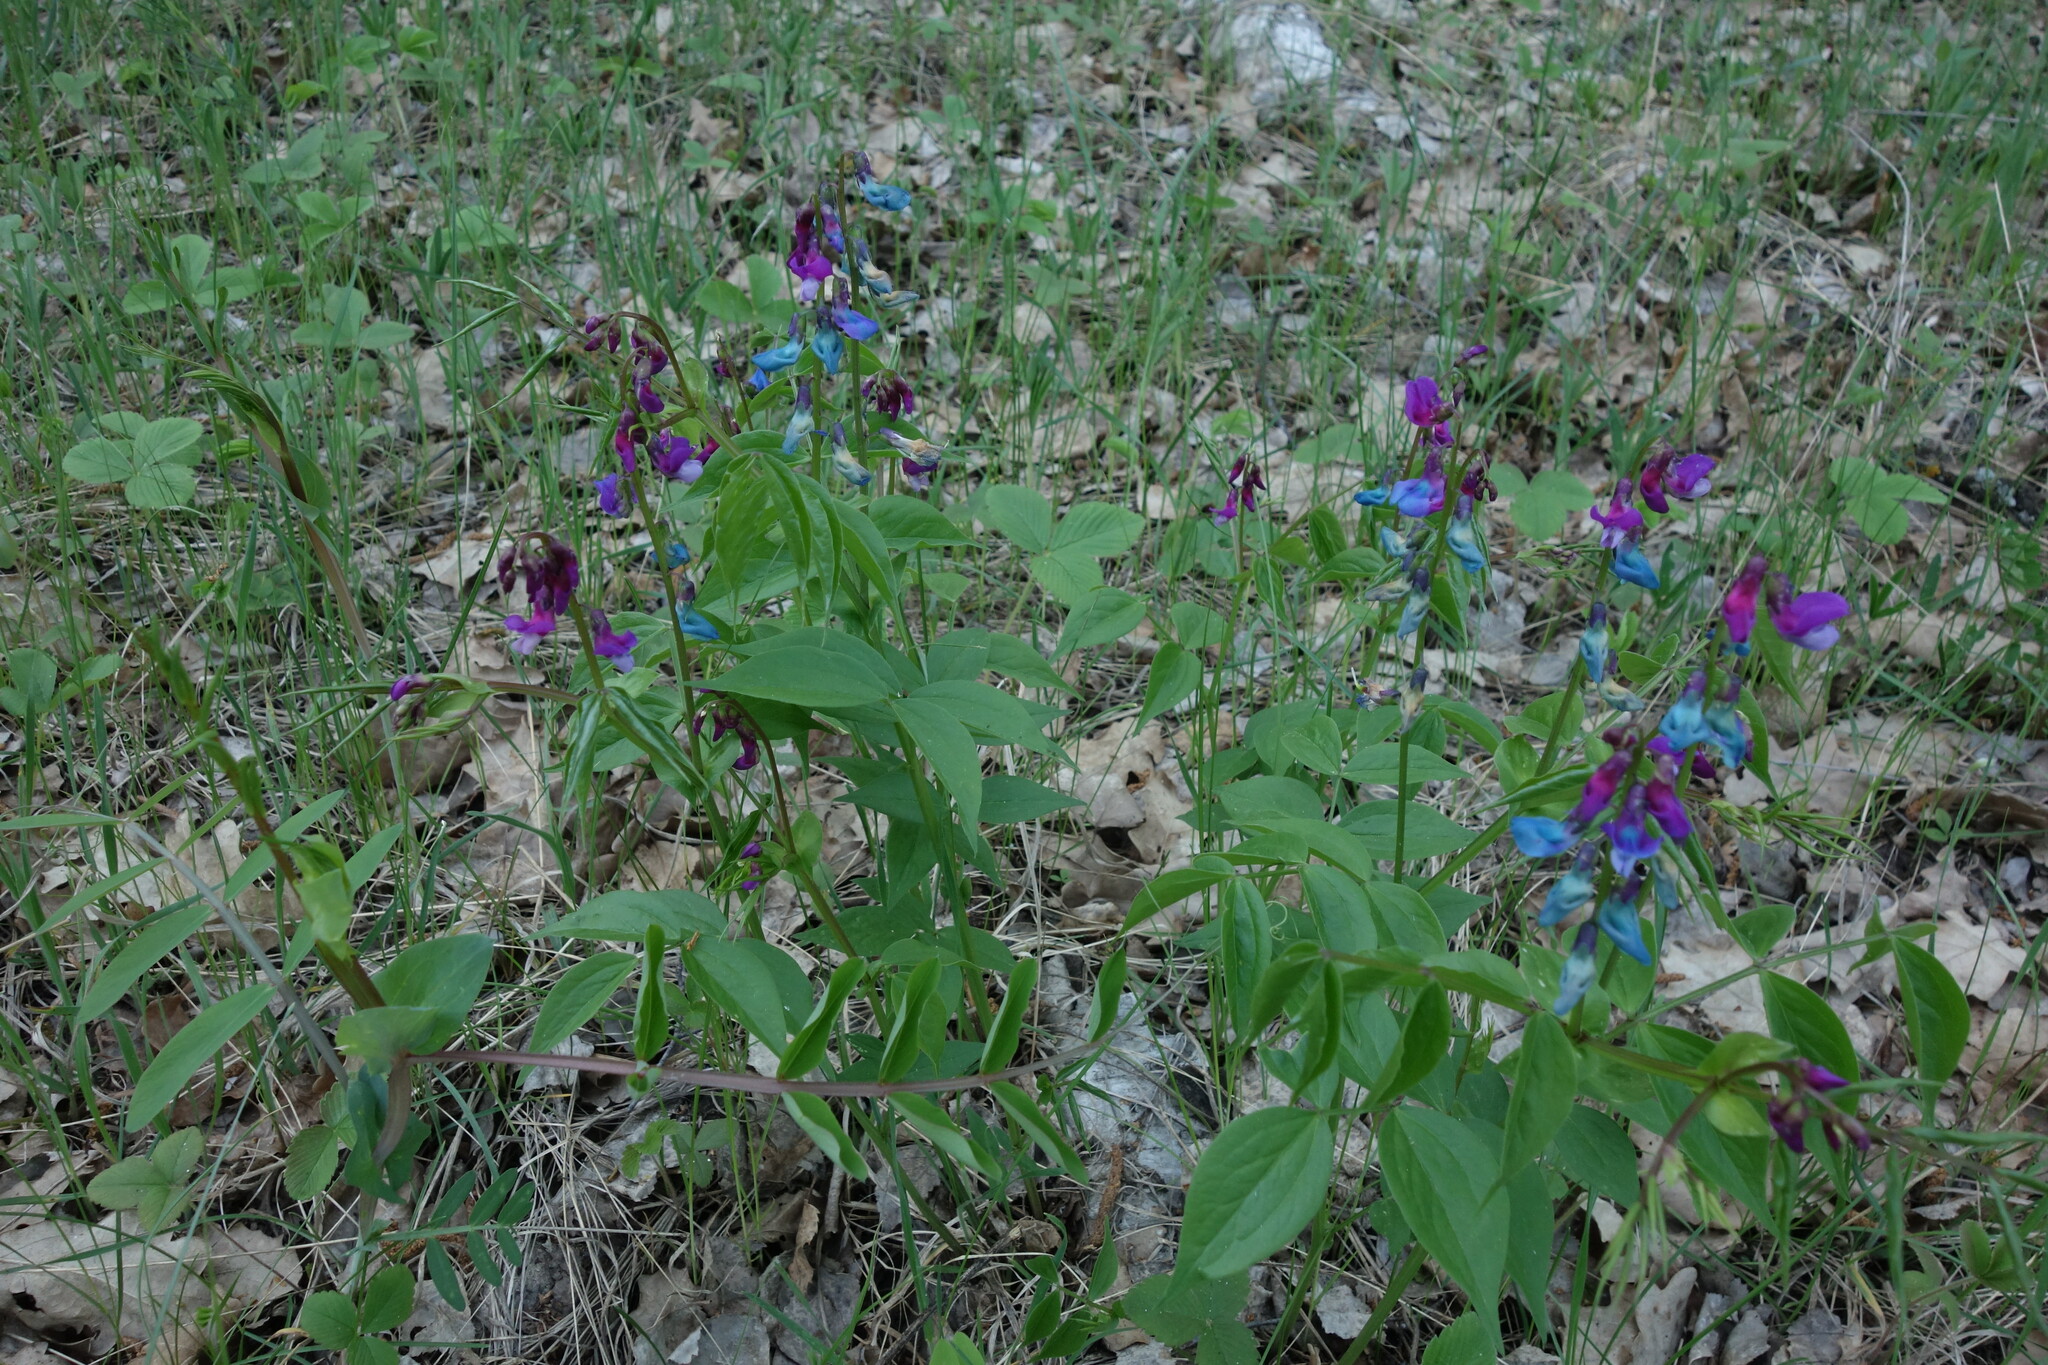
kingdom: Plantae
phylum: Tracheophyta
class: Magnoliopsida
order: Fabales
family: Fabaceae
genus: Lathyrus
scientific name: Lathyrus vernus
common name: Spring pea
